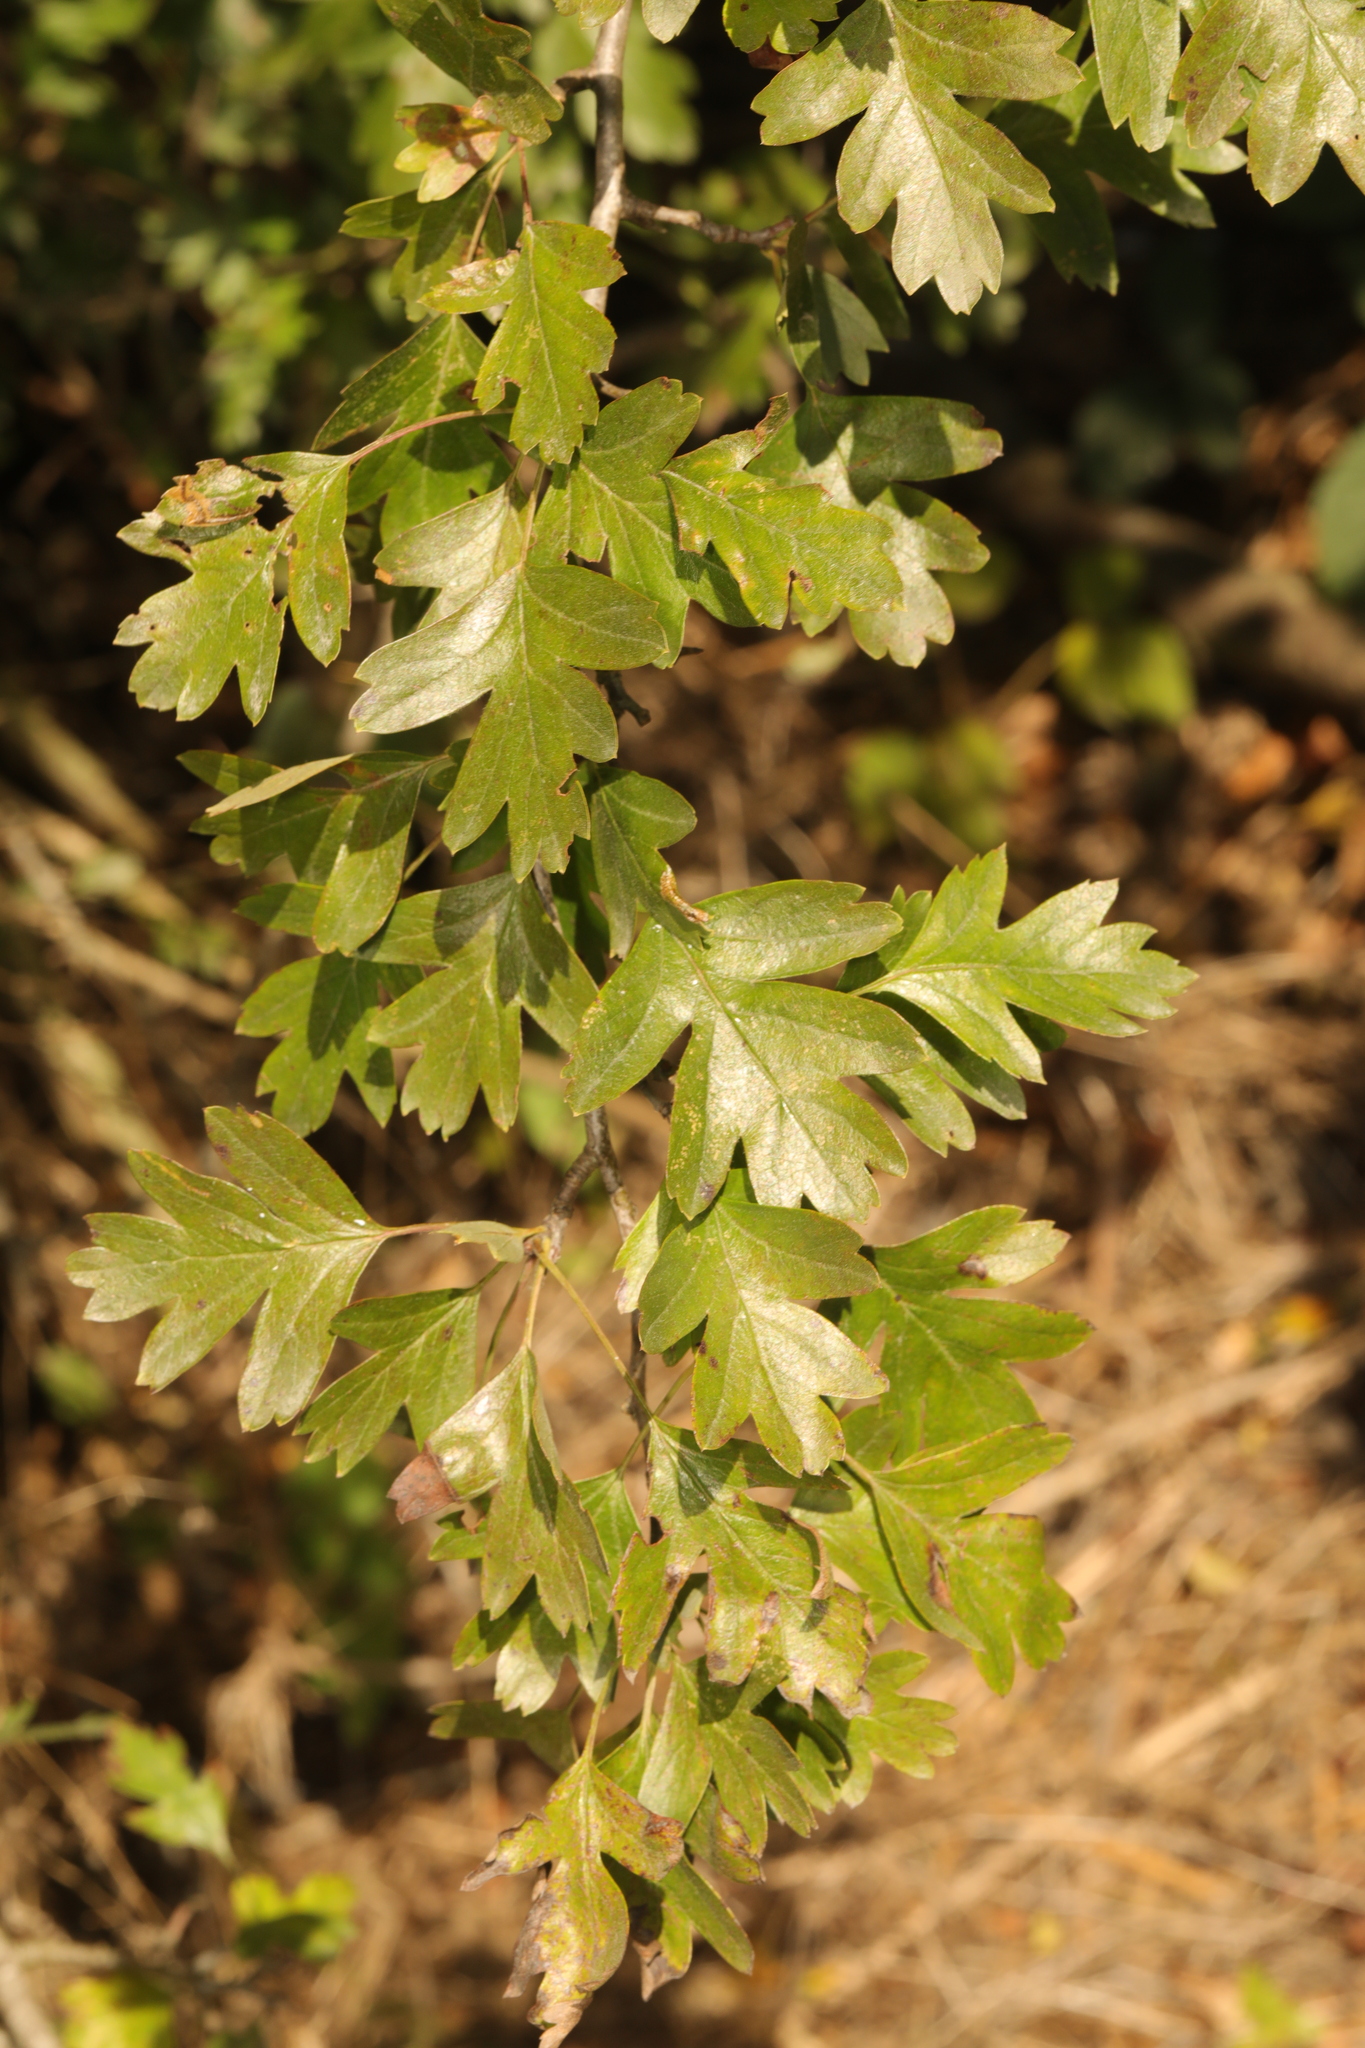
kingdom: Plantae
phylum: Tracheophyta
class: Magnoliopsida
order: Rosales
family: Rosaceae
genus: Crataegus
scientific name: Crataegus monogyna
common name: Hawthorn
